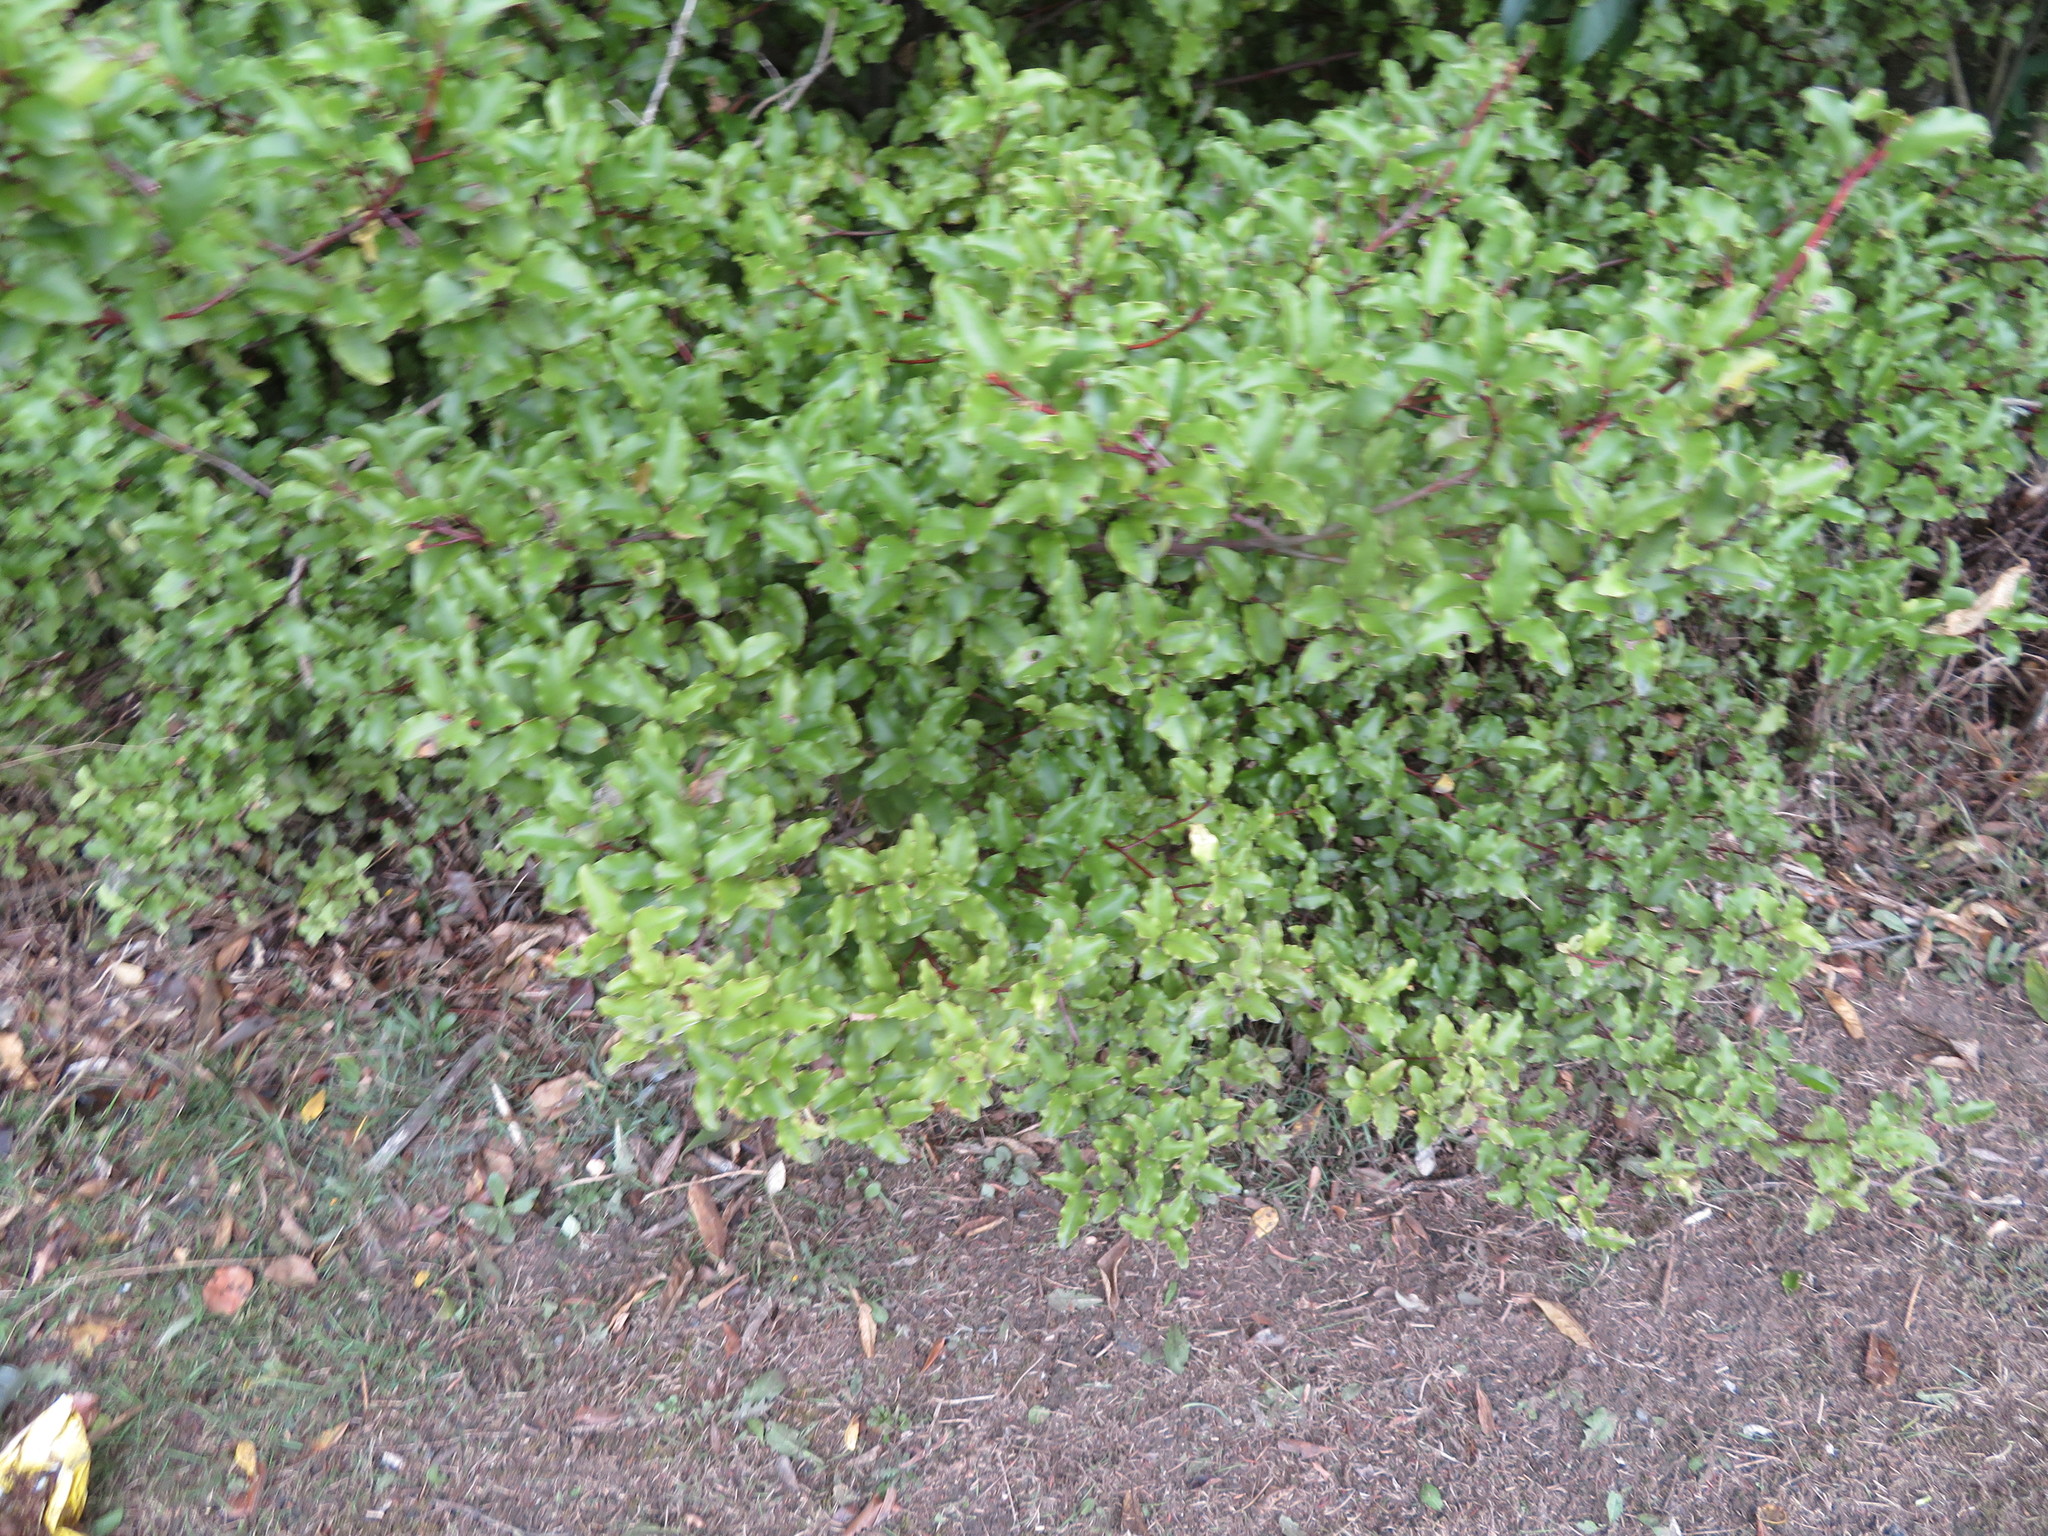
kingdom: Plantae
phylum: Tracheophyta
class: Magnoliopsida
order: Ericales
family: Primulaceae
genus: Myrsine
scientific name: Myrsine australis
